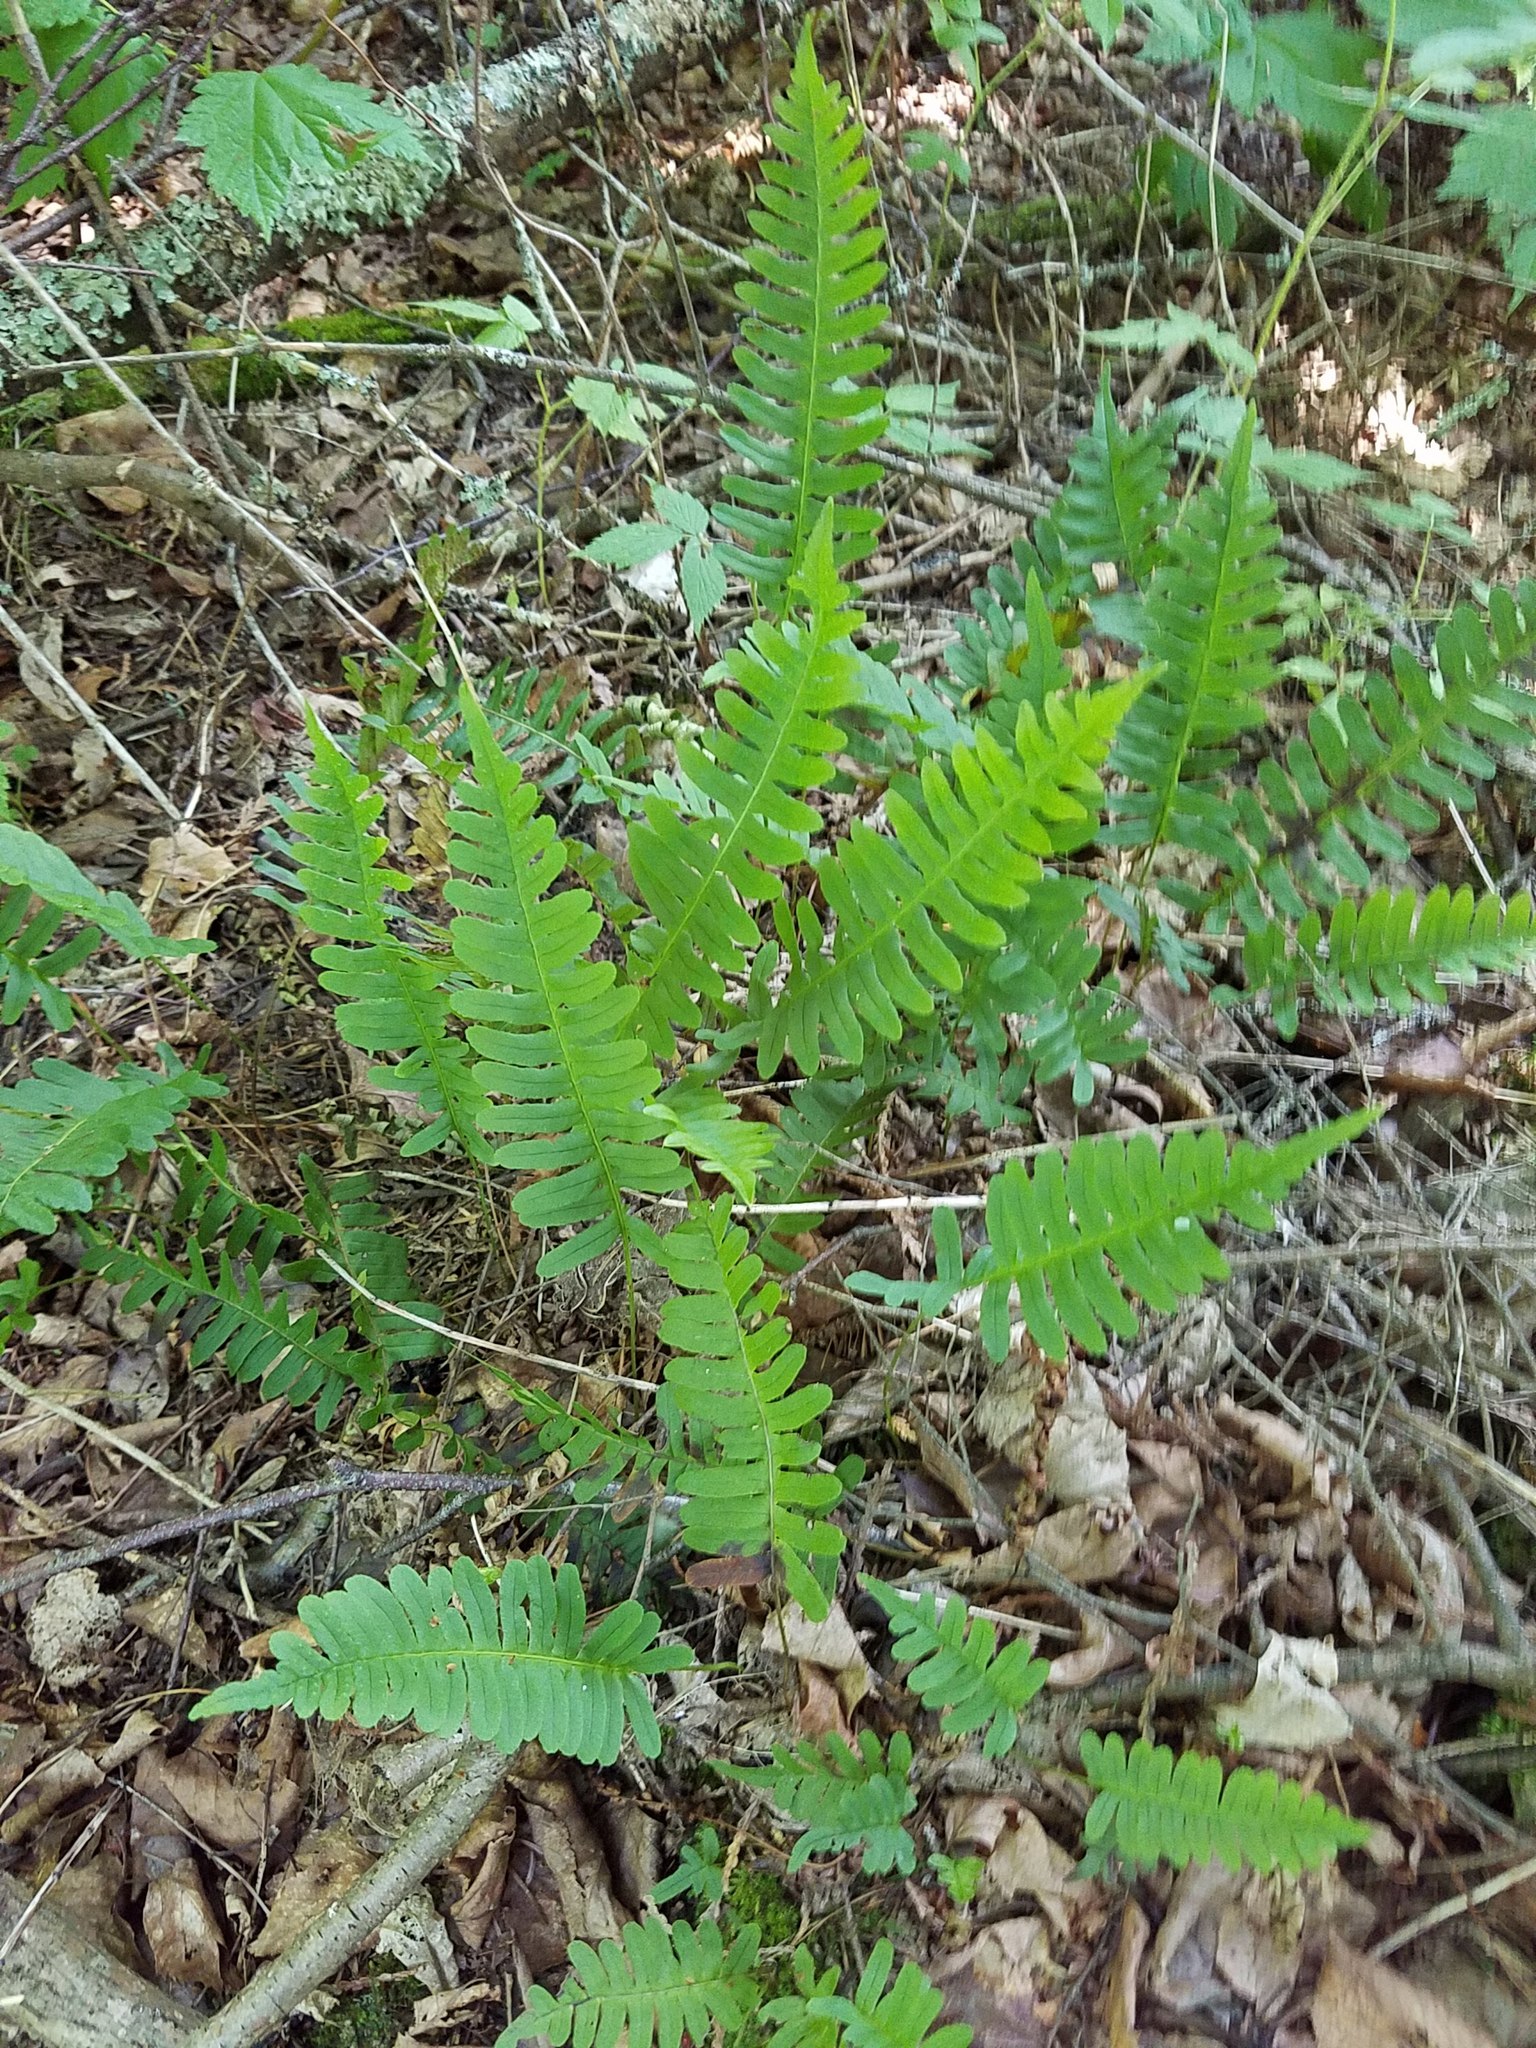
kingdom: Plantae
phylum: Tracheophyta
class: Polypodiopsida
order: Polypodiales
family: Polypodiaceae
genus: Polypodium
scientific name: Polypodium virginianum
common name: American wall fern
